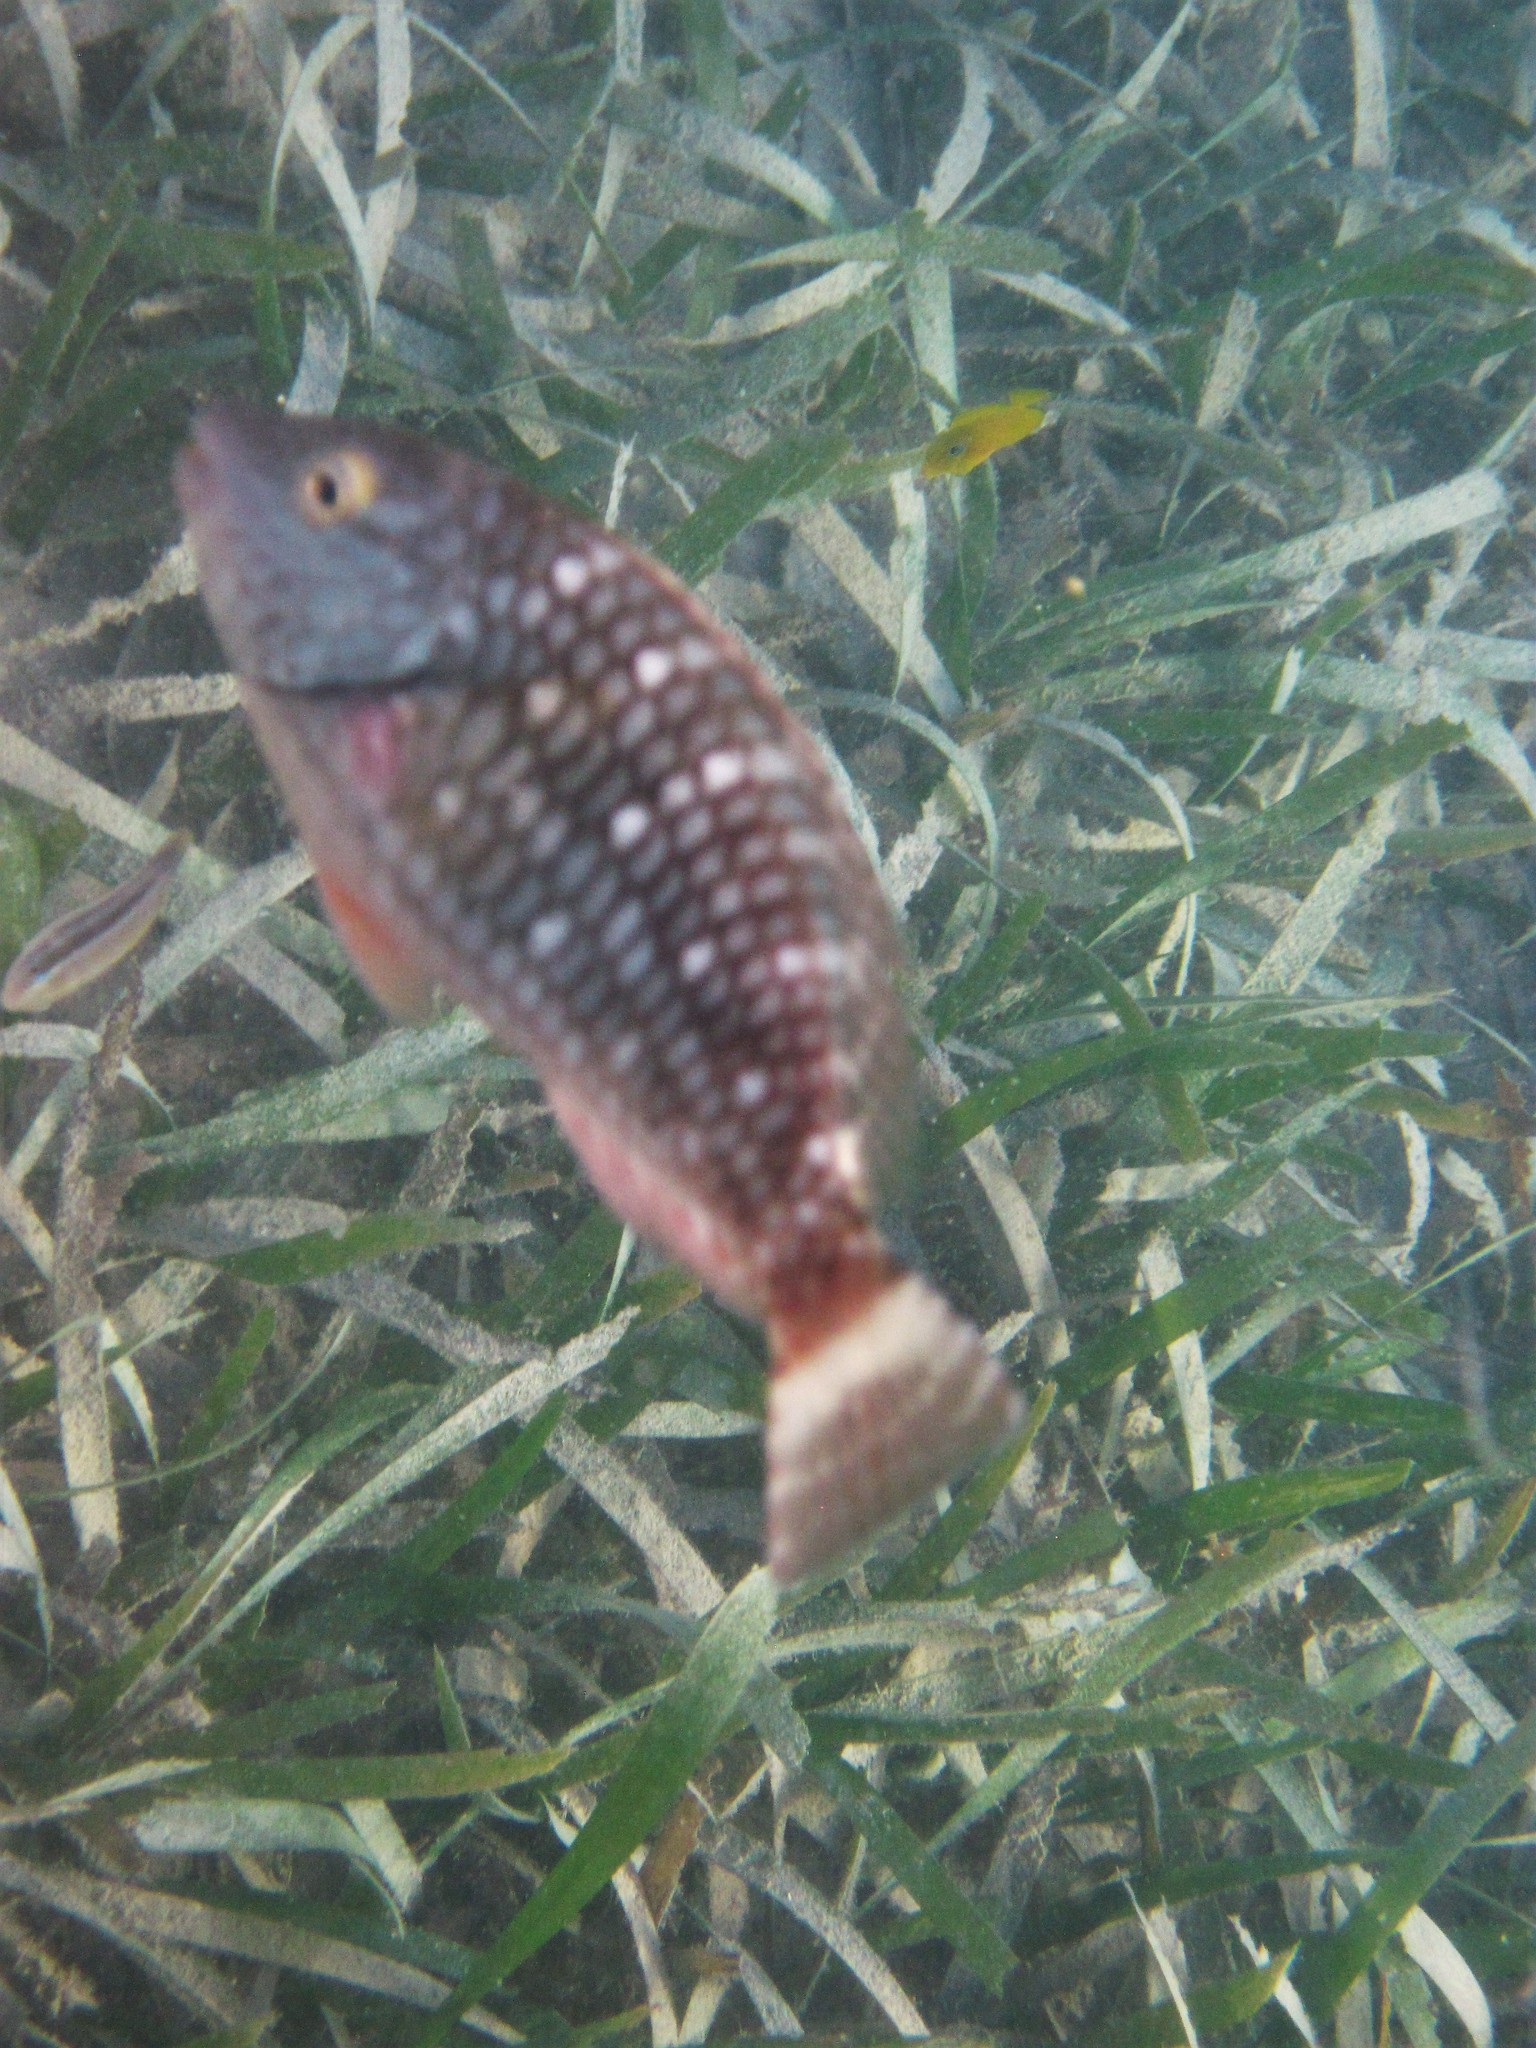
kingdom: Animalia
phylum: Chordata
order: Perciformes
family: Scaridae
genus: Sparisoma
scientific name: Sparisoma viride
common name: Stoplight parrotfish
